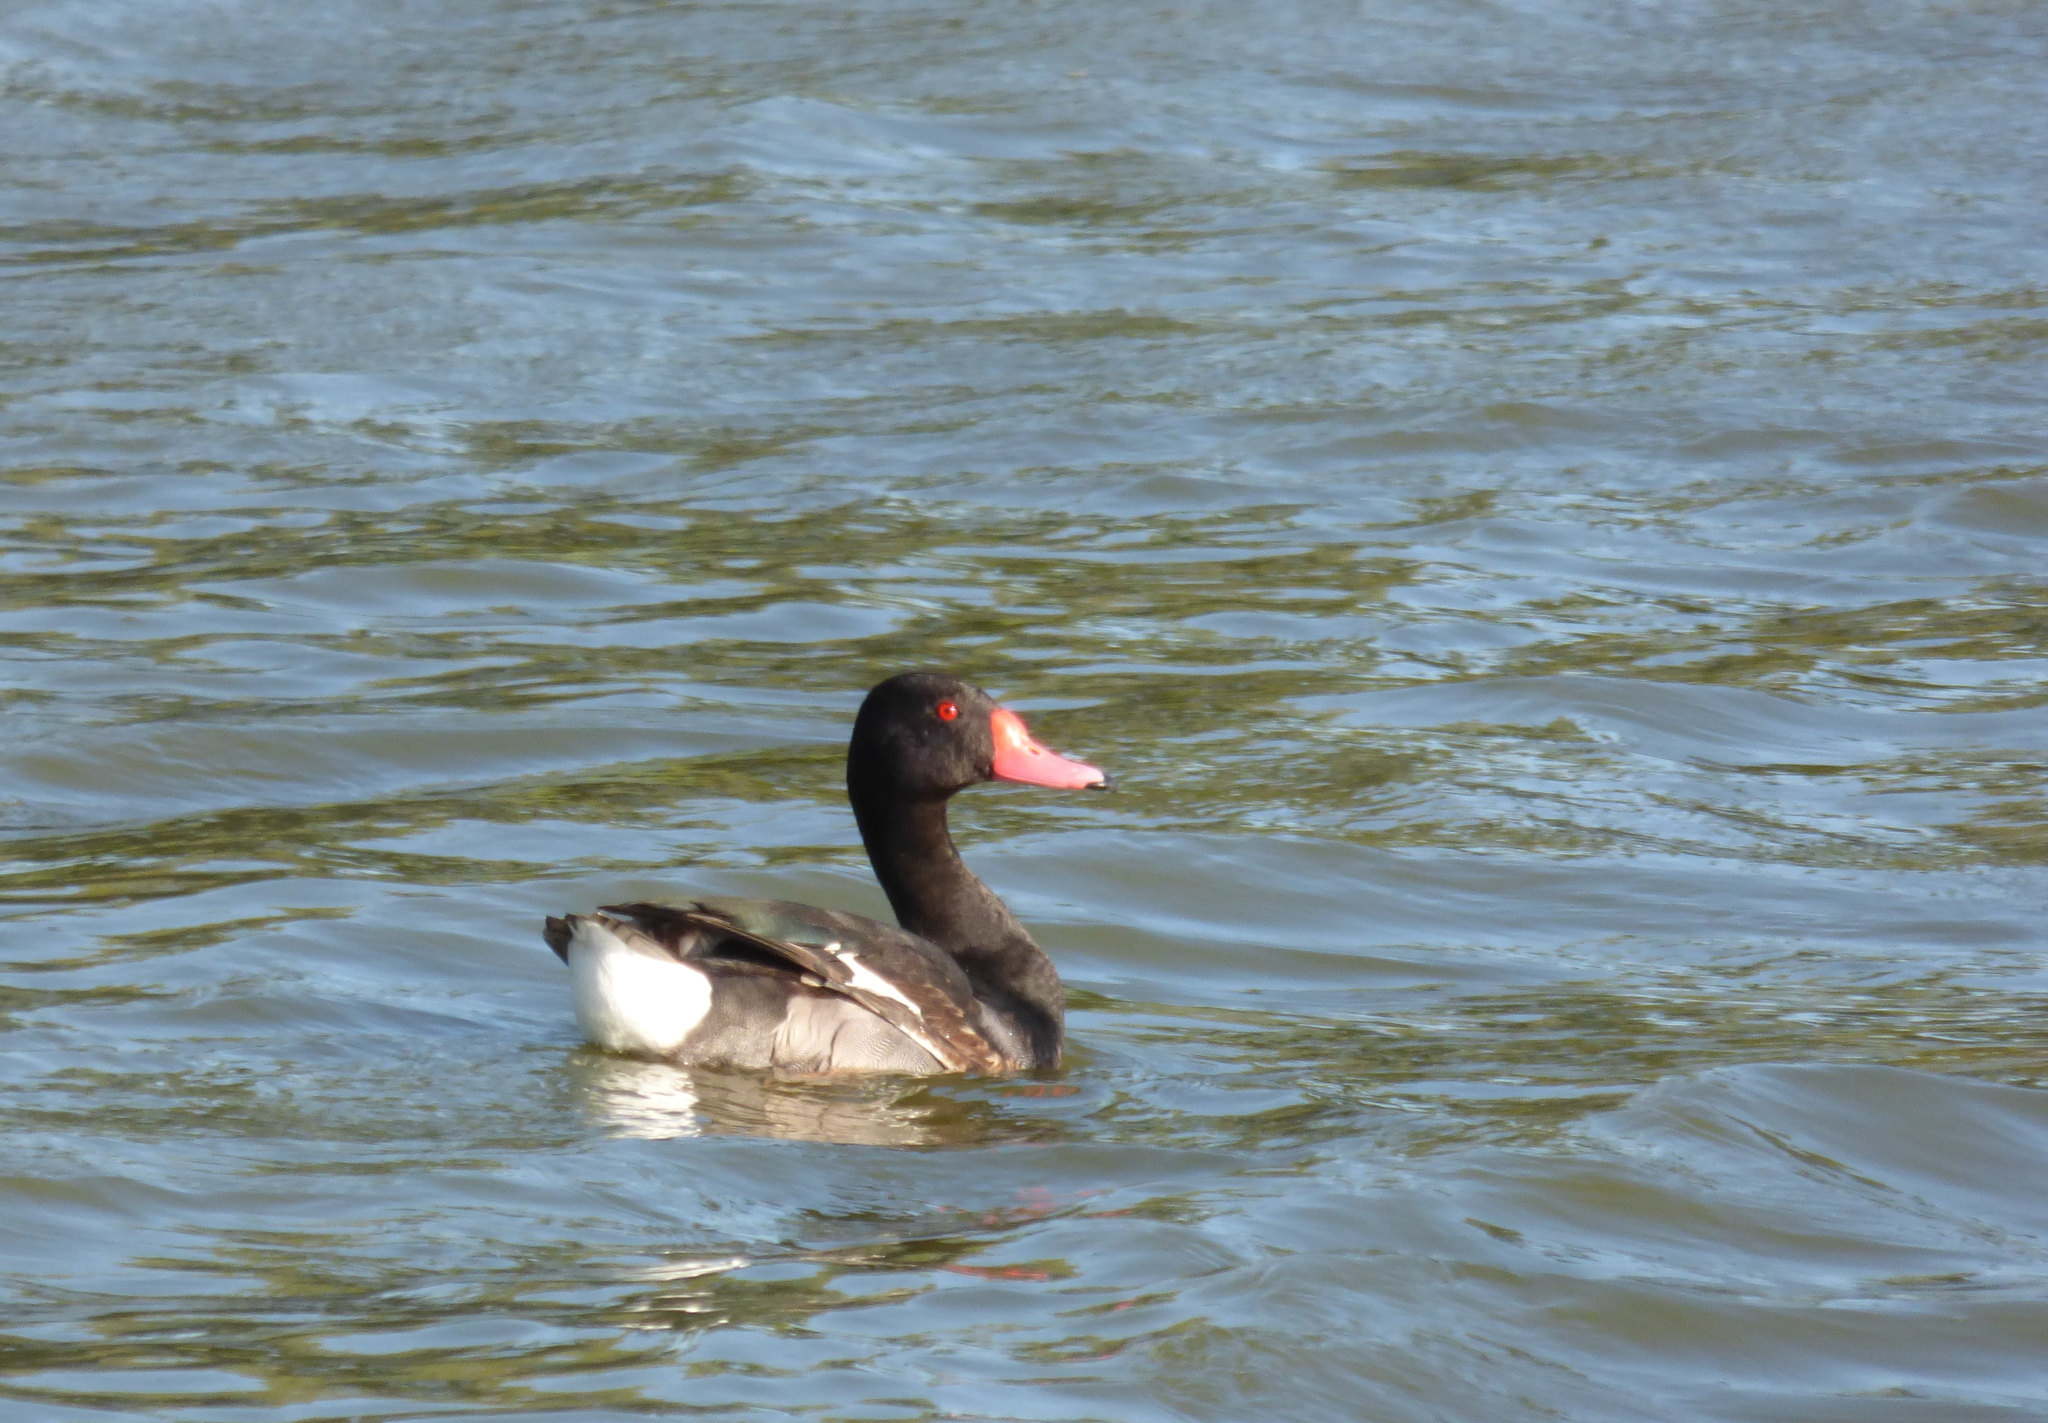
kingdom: Animalia
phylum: Chordata
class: Aves
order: Anseriformes
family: Anatidae
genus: Netta
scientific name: Netta peposaca
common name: Rosy-billed pochard
